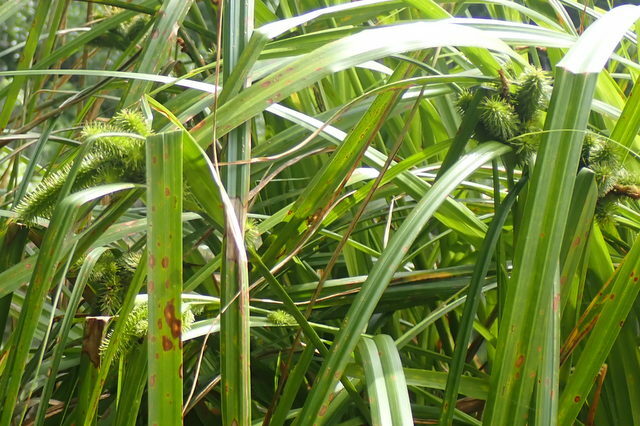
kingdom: Plantae
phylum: Tracheophyta
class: Liliopsida
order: Poales
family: Cyperaceae
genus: Carex
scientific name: Carex comosa
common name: Bristly sedge
